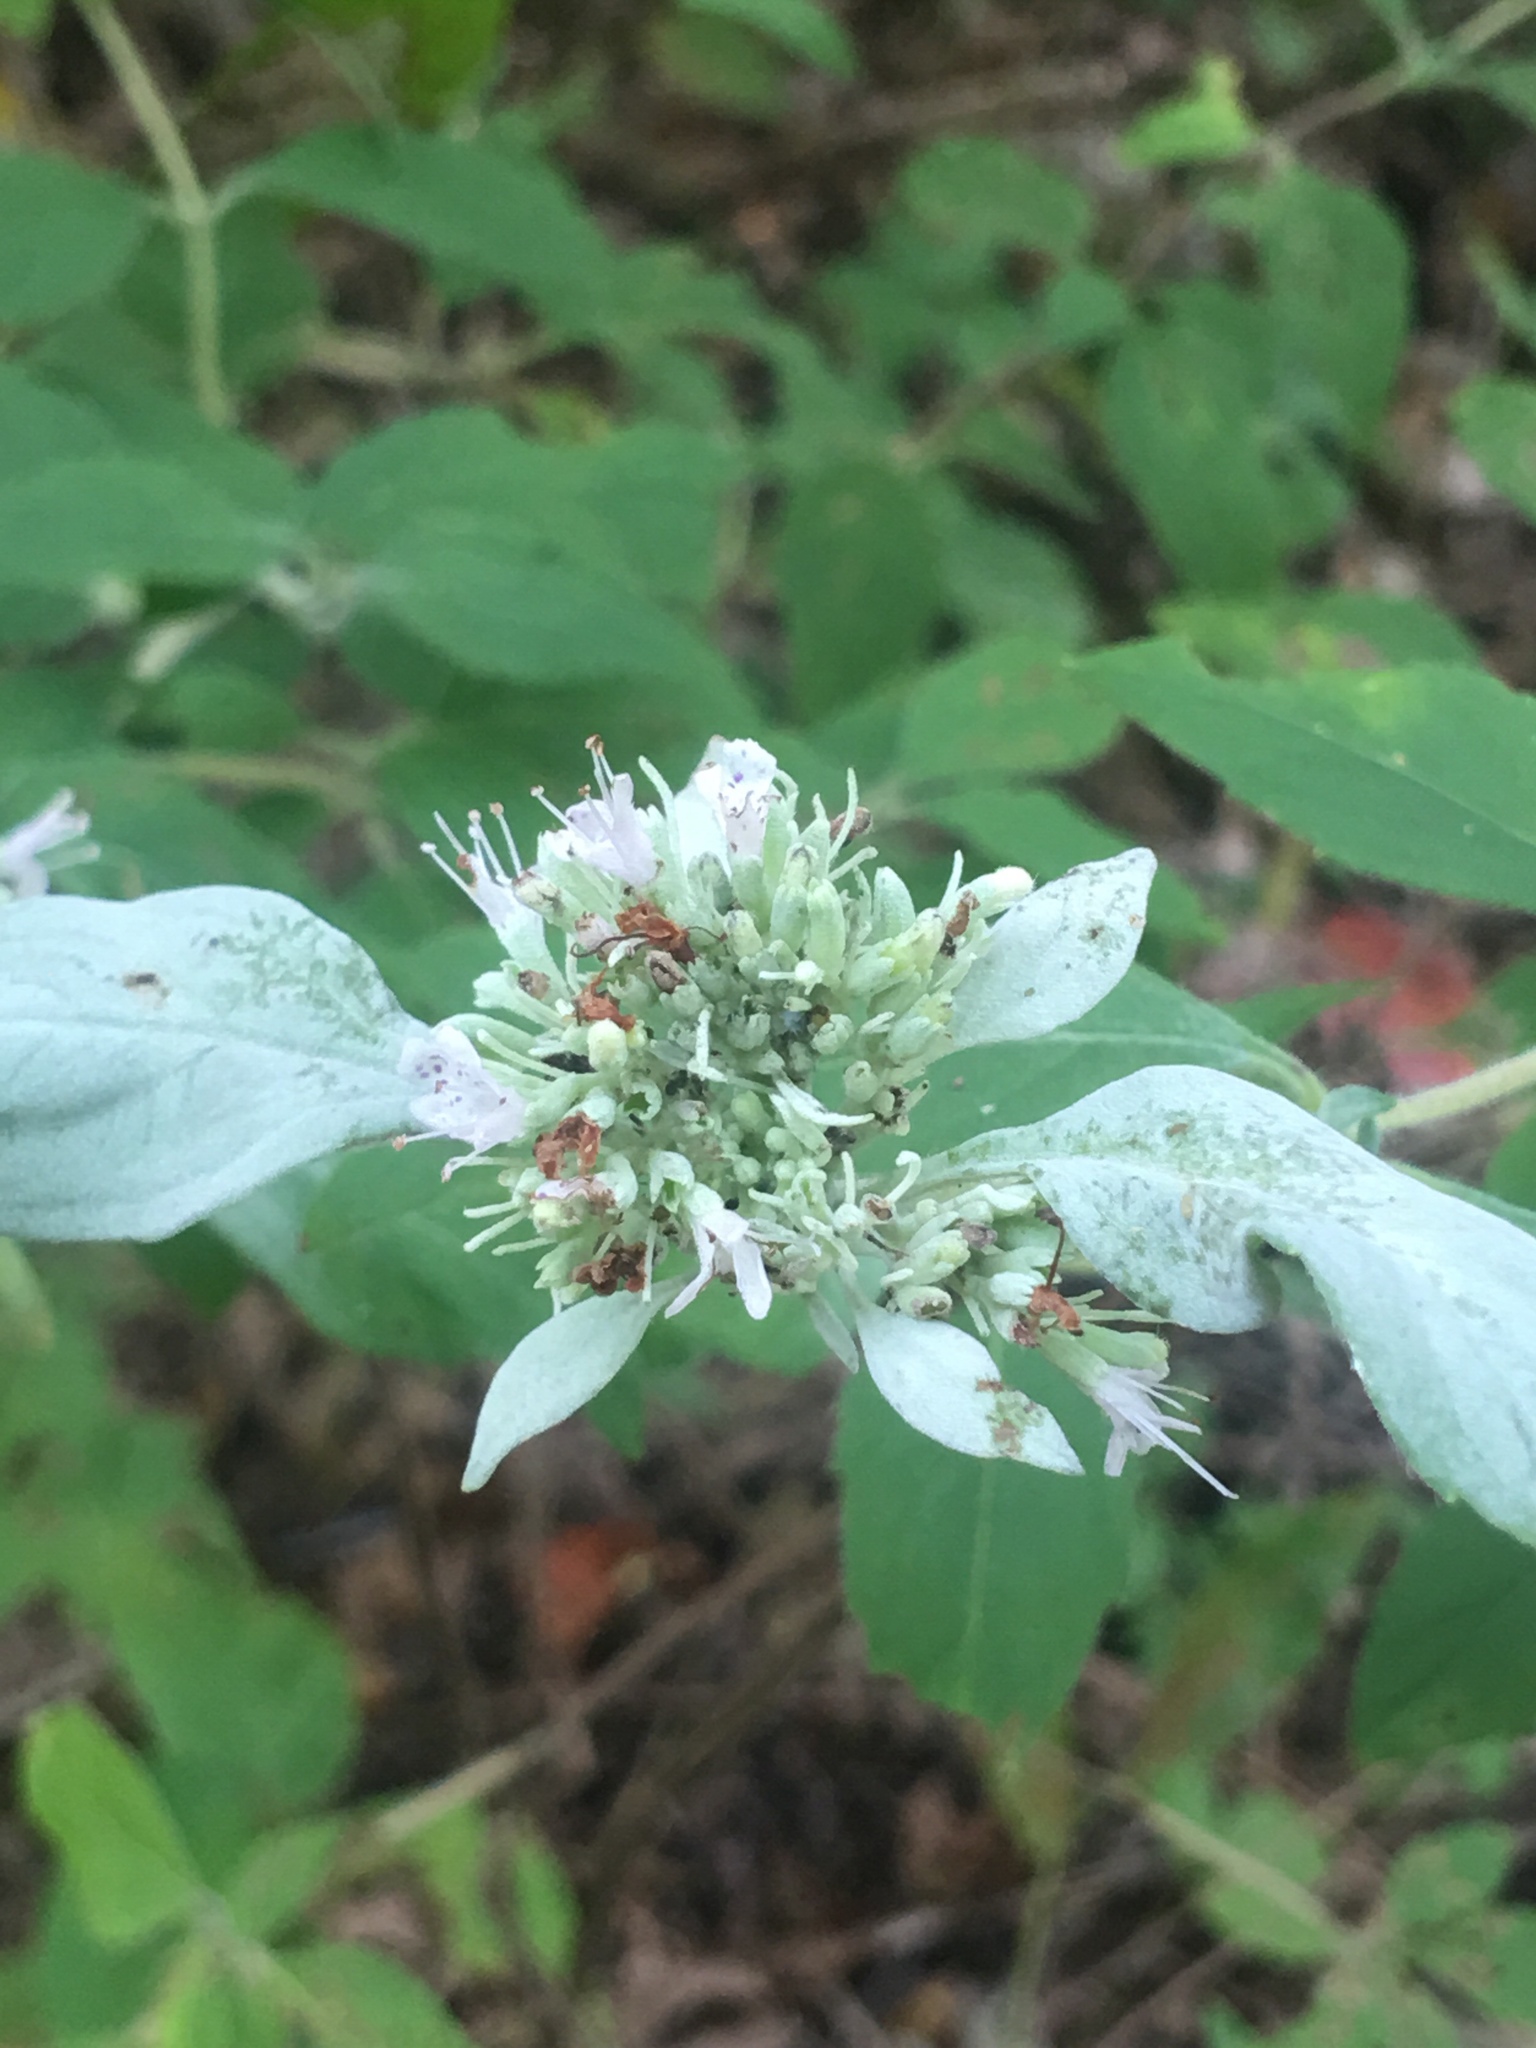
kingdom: Plantae
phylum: Tracheophyta
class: Magnoliopsida
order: Lamiales
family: Lamiaceae
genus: Pycnanthemum
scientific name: Pycnanthemum albescens
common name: White-leaf mountain-mint
